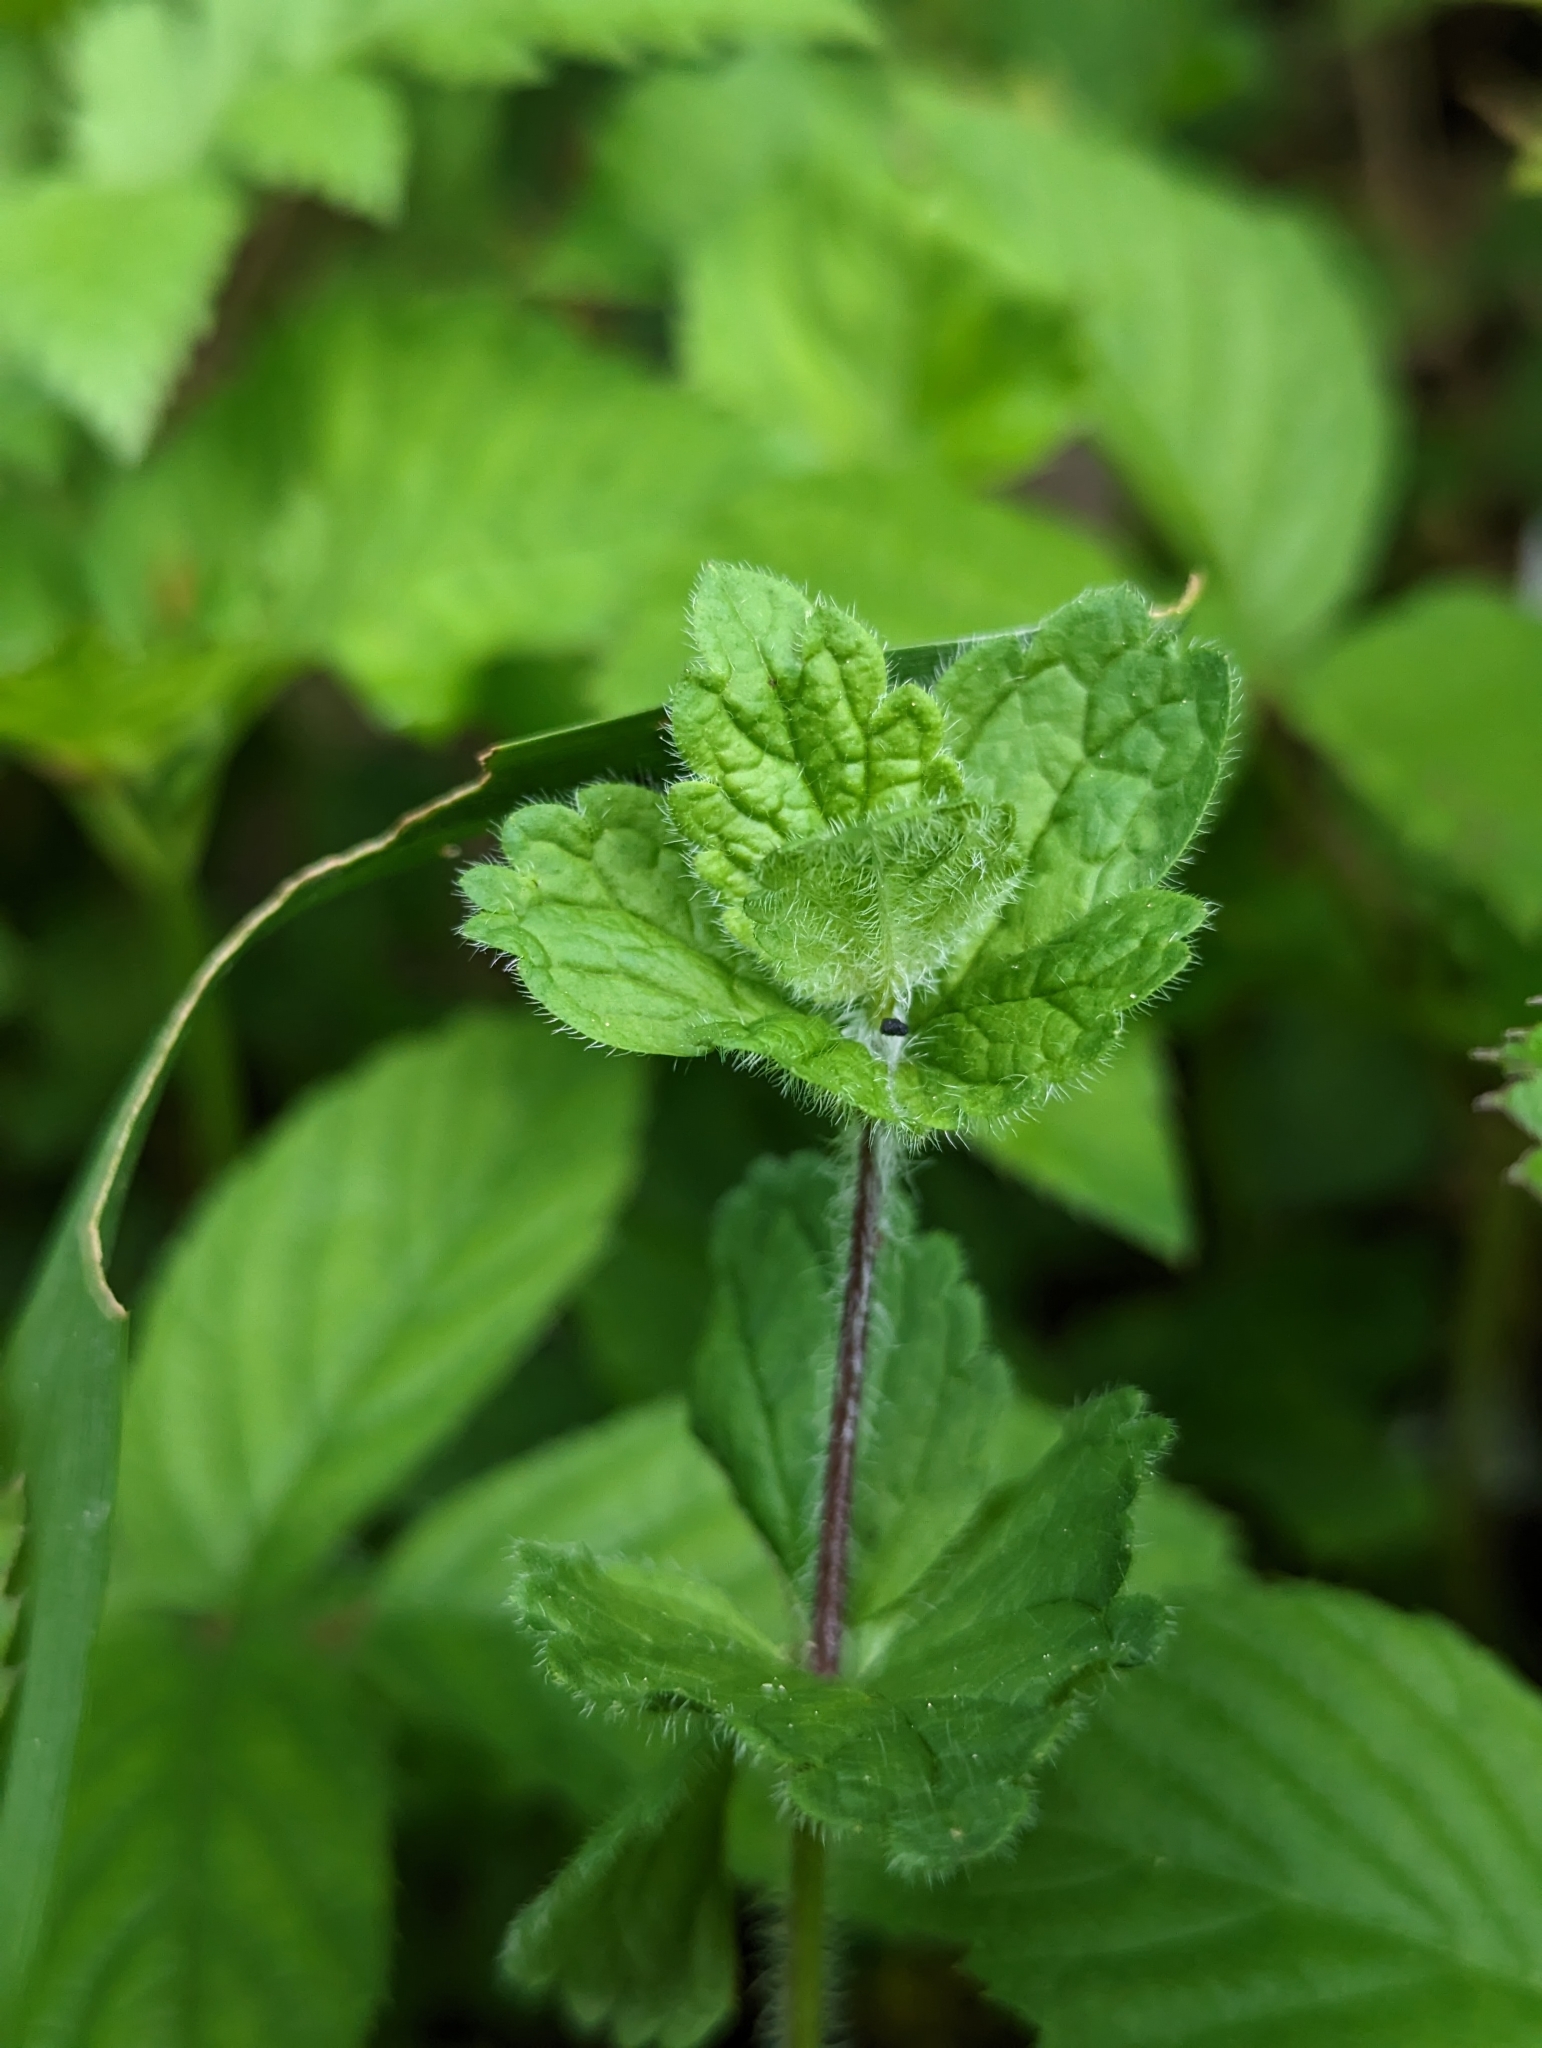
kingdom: Plantae
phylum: Tracheophyta
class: Magnoliopsida
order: Lamiales
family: Plantaginaceae
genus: Veronica
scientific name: Veronica chamaedrys
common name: Germander speedwell
